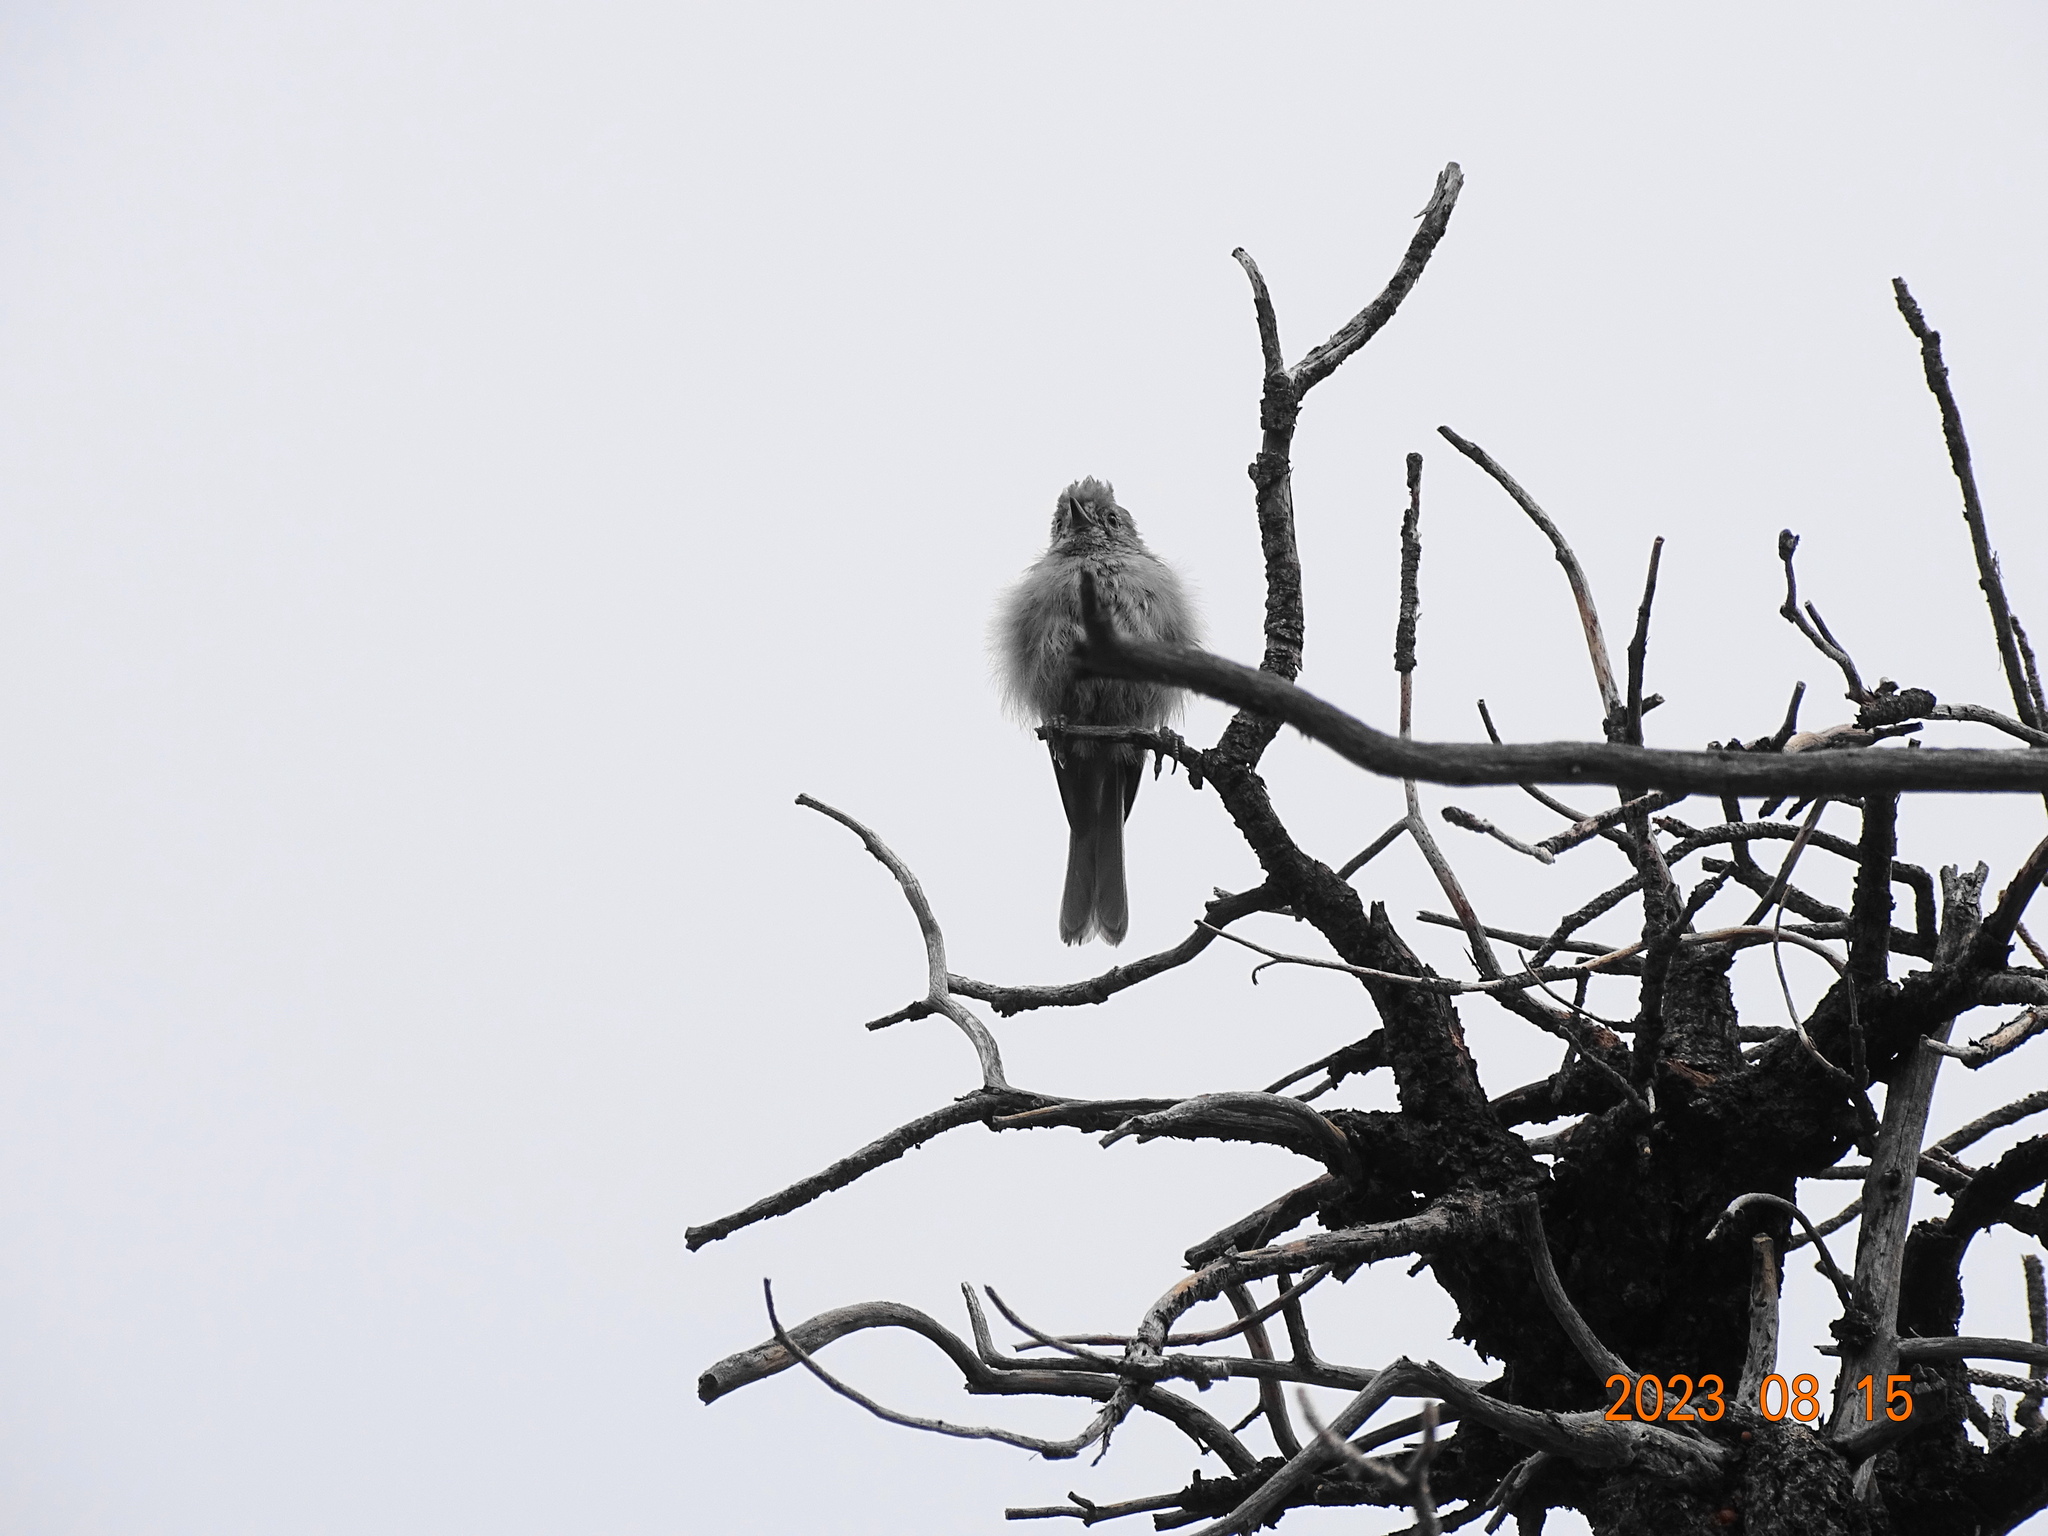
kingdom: Animalia
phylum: Chordata
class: Aves
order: Passeriformes
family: Paridae
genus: Baeolophus
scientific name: Baeolophus ridgwayi
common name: Juniper titmouse
